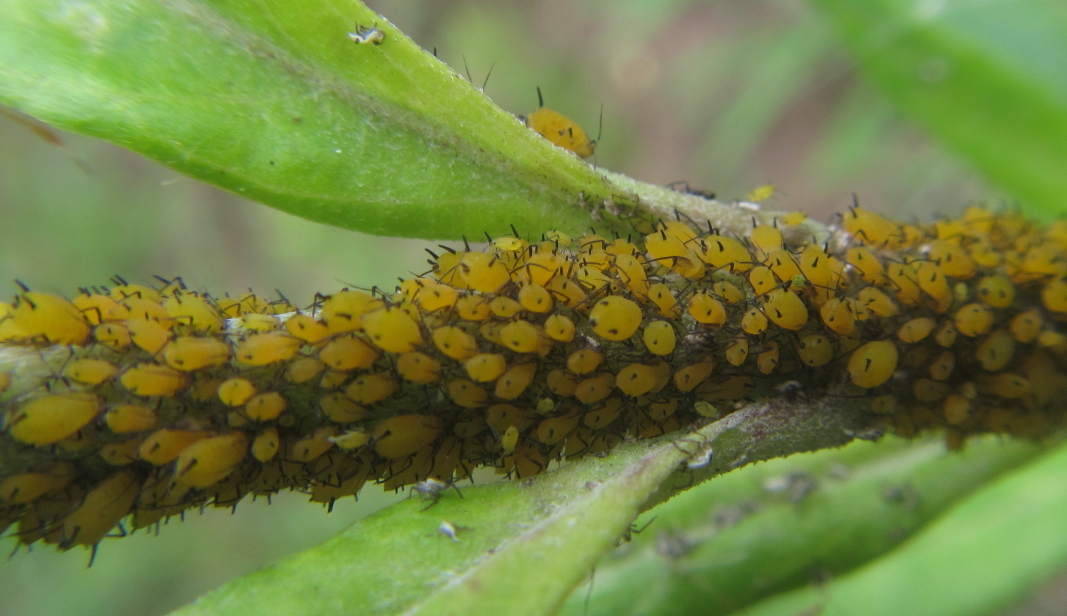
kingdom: Animalia
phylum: Arthropoda
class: Insecta
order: Hemiptera
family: Aphididae
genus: Aphis
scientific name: Aphis nerii
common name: Oleander aphid
